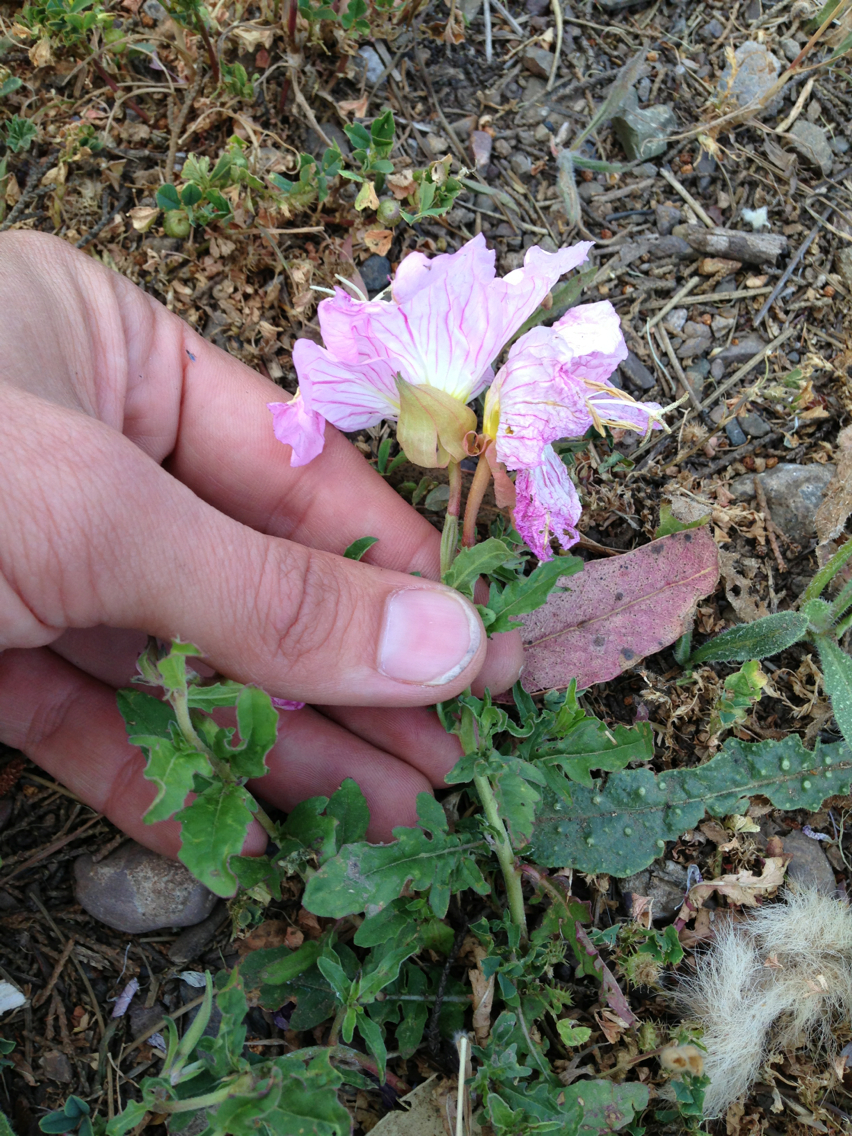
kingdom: Plantae
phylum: Tracheophyta
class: Magnoliopsida
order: Myrtales
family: Onagraceae
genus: Oenothera
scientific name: Oenothera speciosa
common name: White evening-primrose
